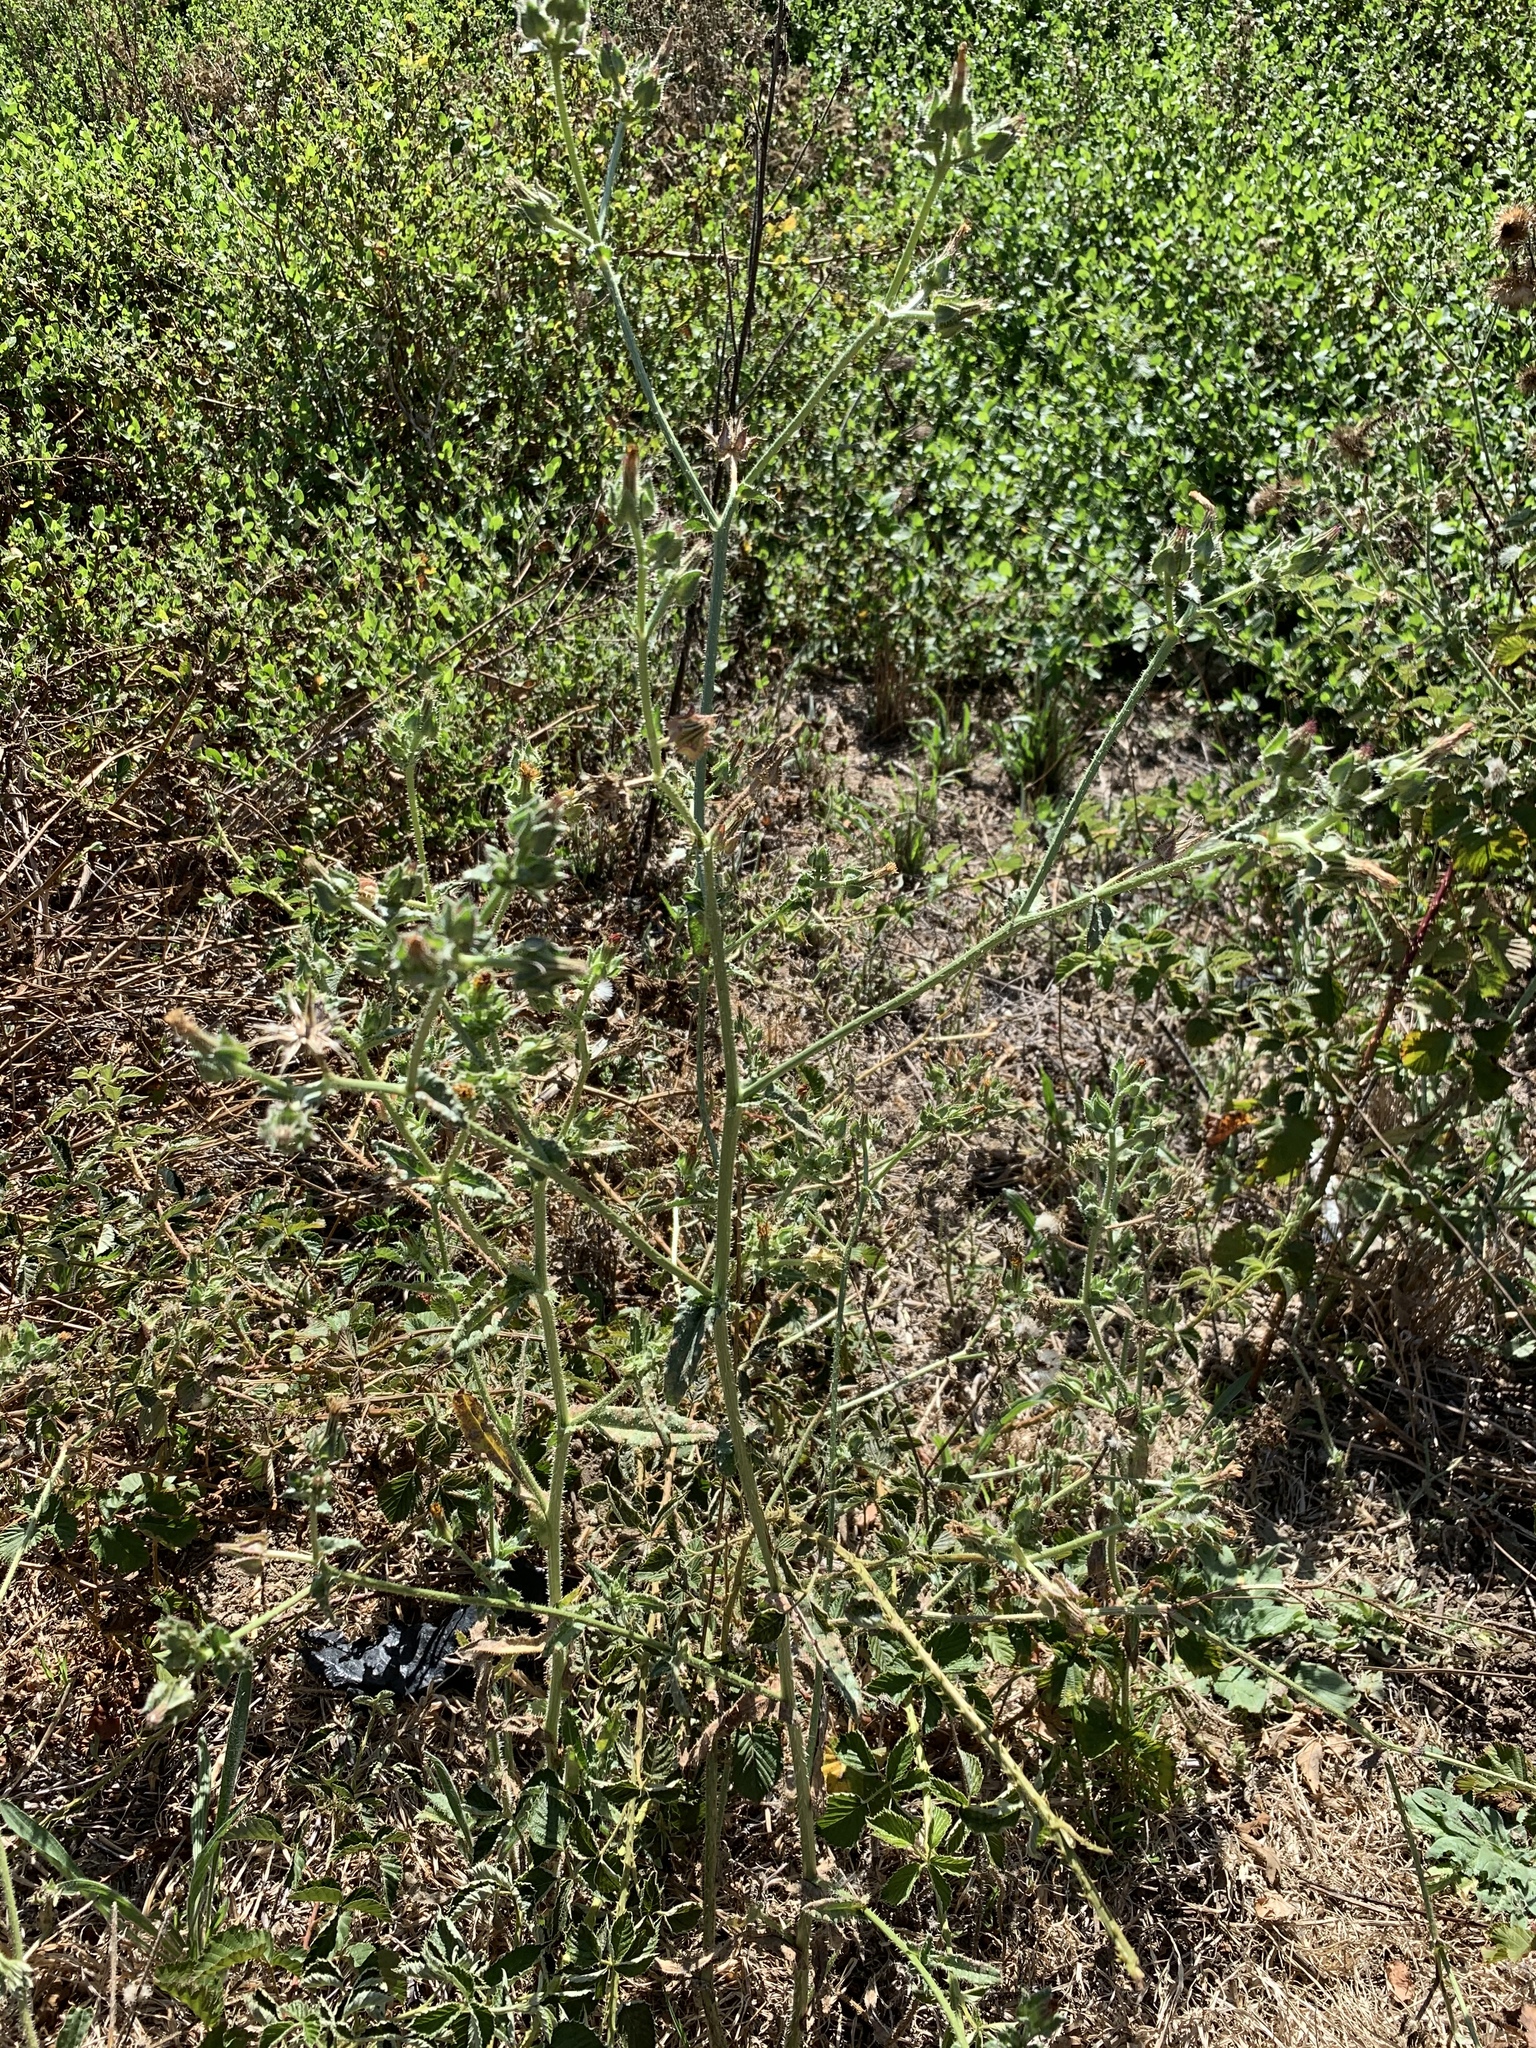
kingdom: Plantae
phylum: Tracheophyta
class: Magnoliopsida
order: Asterales
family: Asteraceae
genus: Helminthotheca
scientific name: Helminthotheca echioides
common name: Ox-tongue
